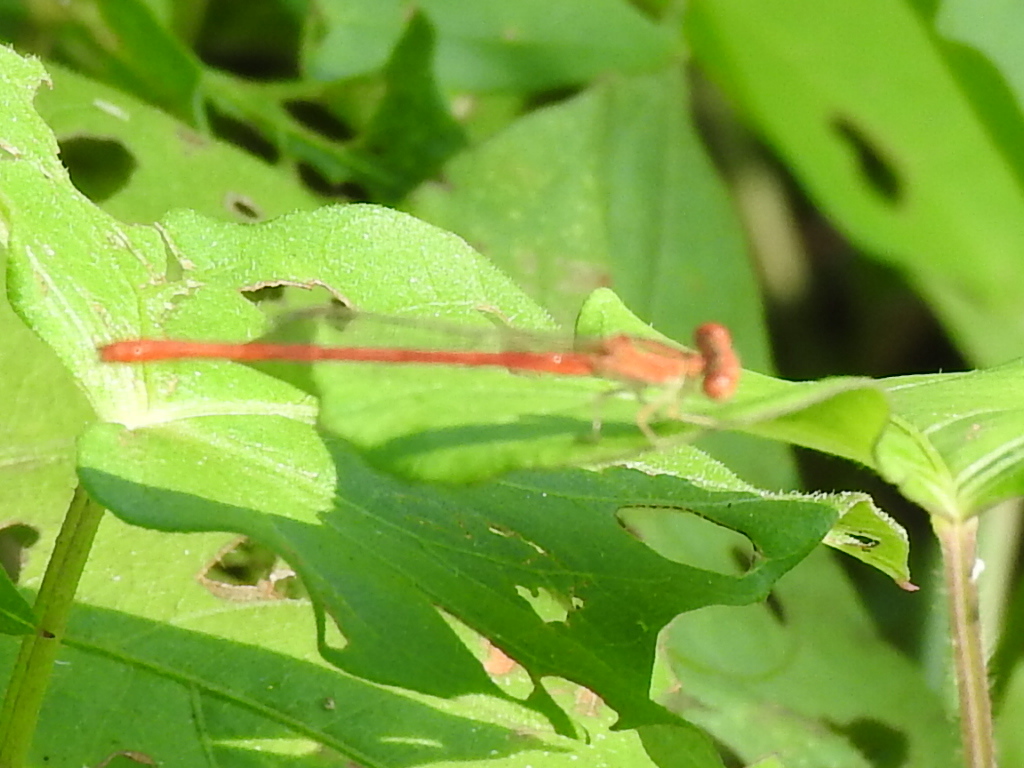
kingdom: Animalia
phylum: Arthropoda
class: Insecta
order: Odonata
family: Coenagrionidae
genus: Telebasis
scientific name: Telebasis salva
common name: Desert firetail
